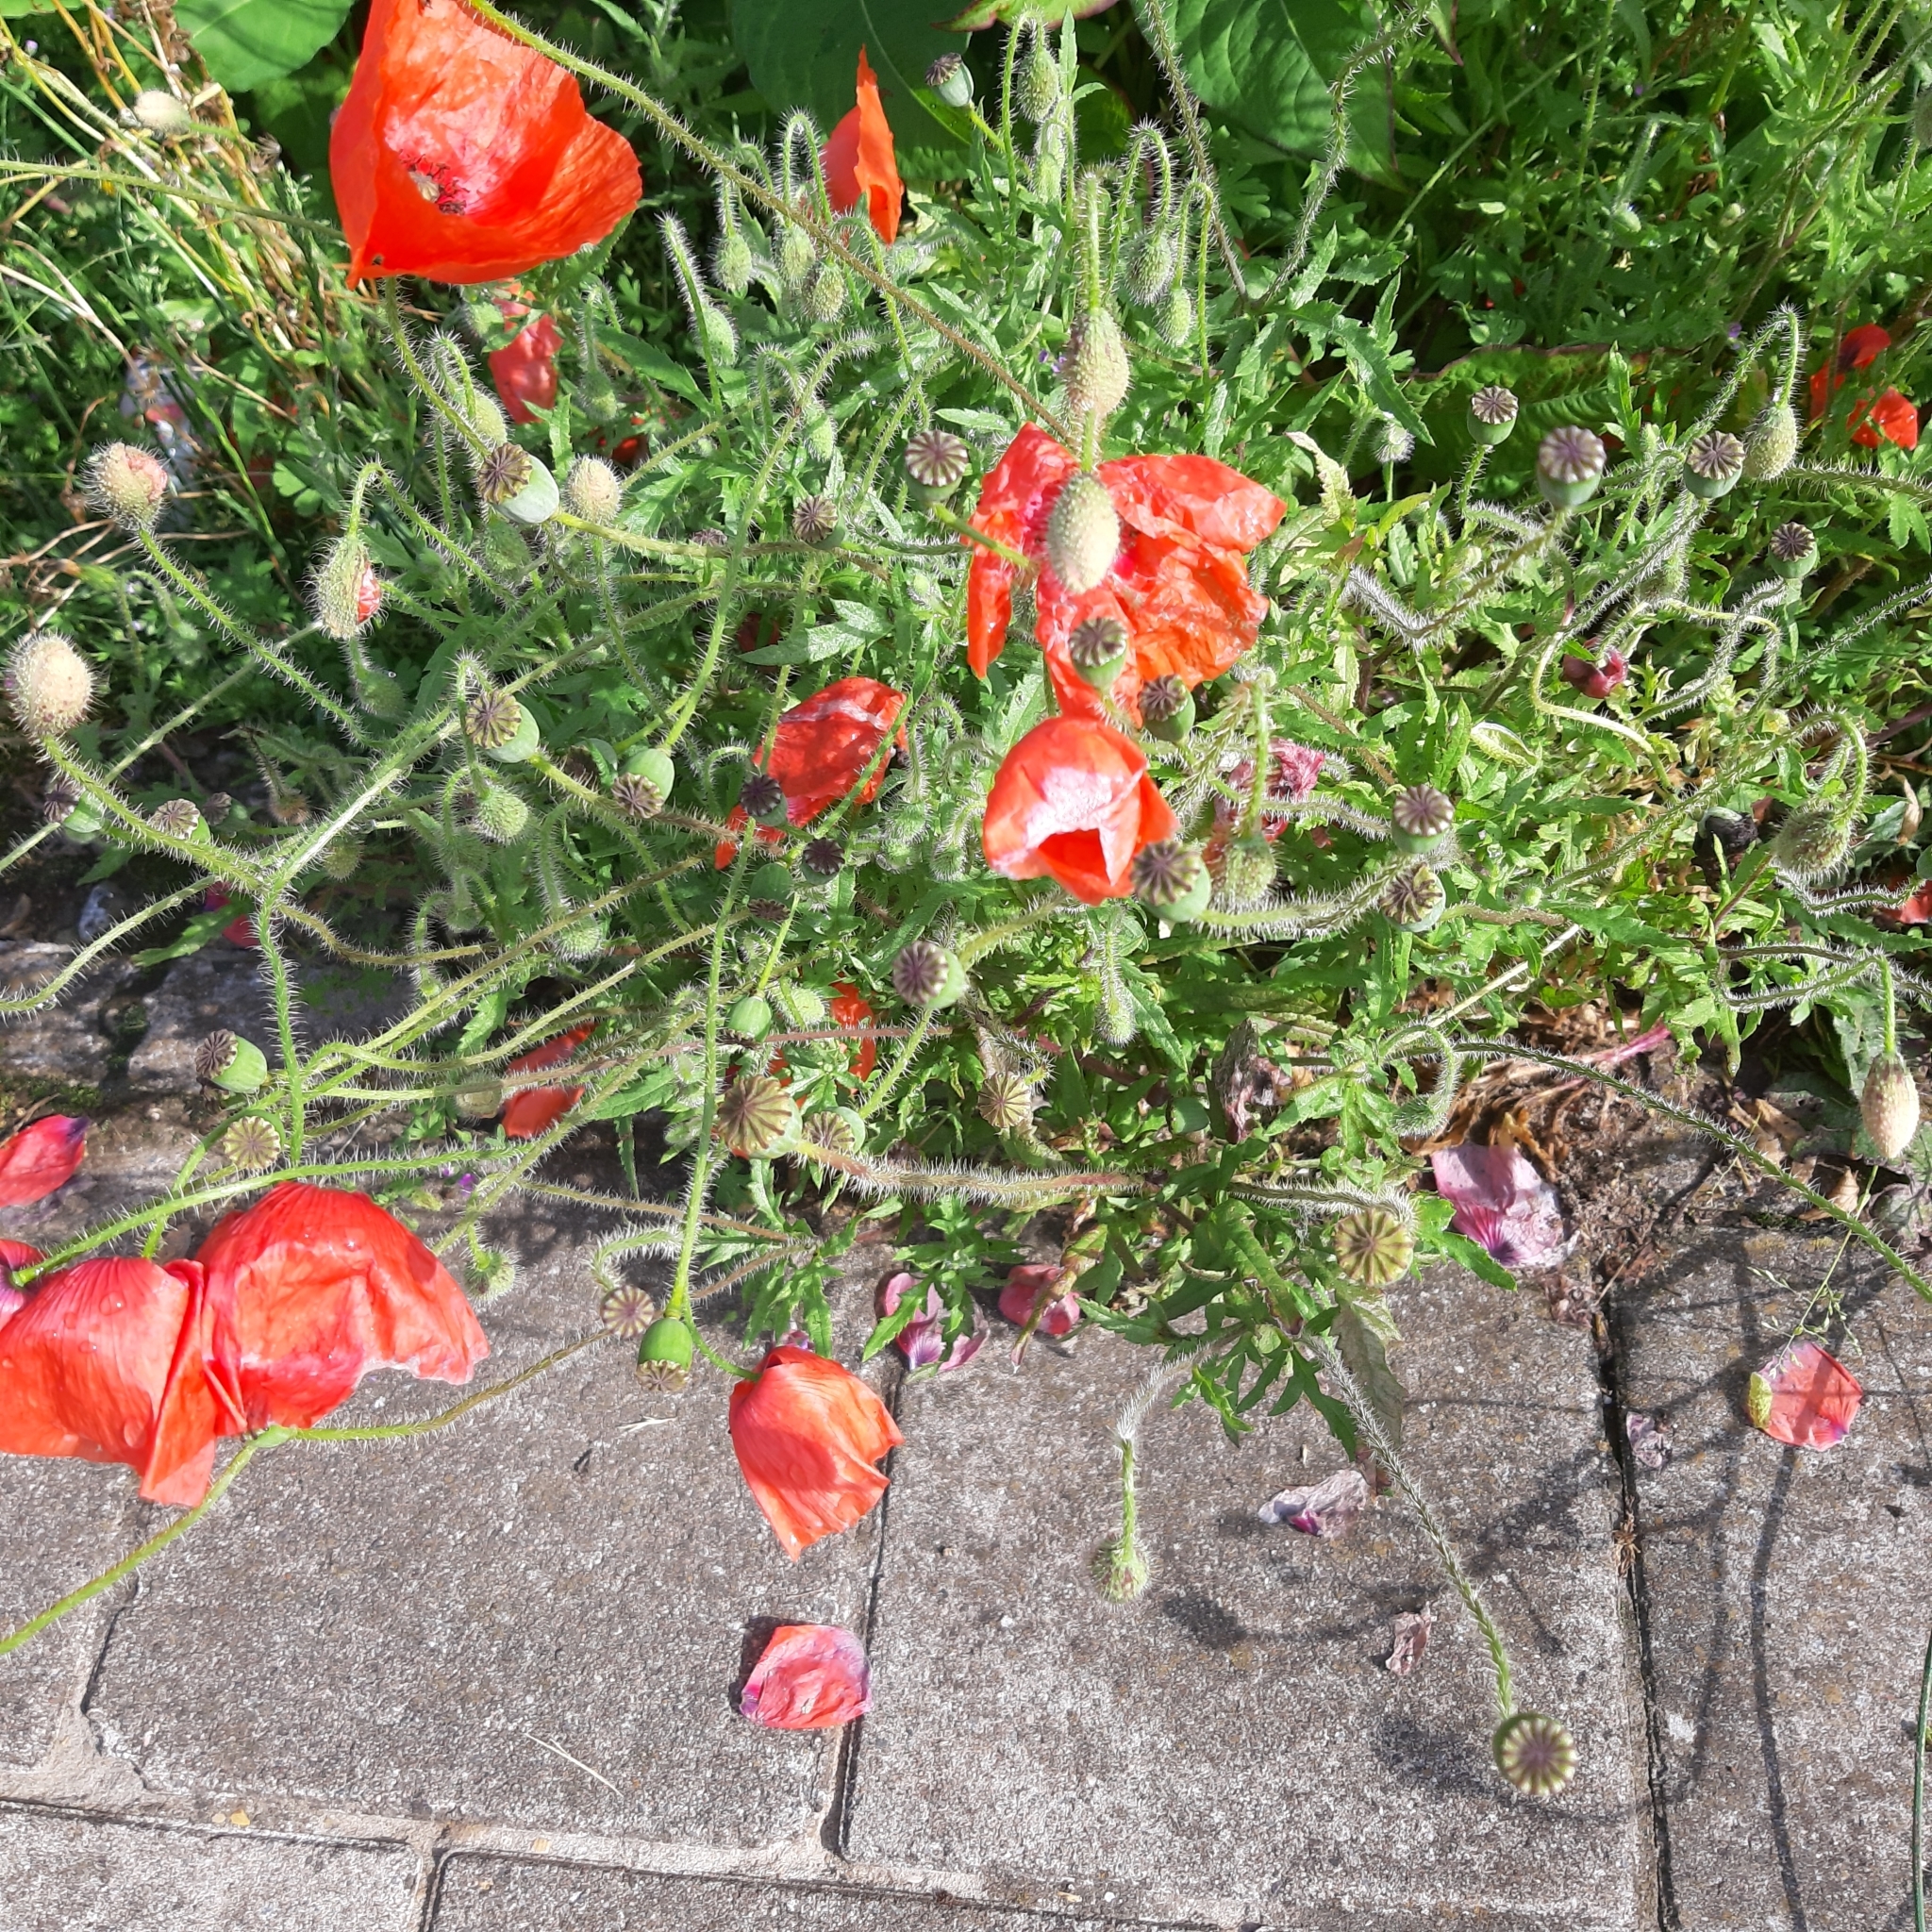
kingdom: Plantae
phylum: Tracheophyta
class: Magnoliopsida
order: Ranunculales
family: Papaveraceae
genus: Papaver
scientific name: Papaver rhoeas
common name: Corn poppy
